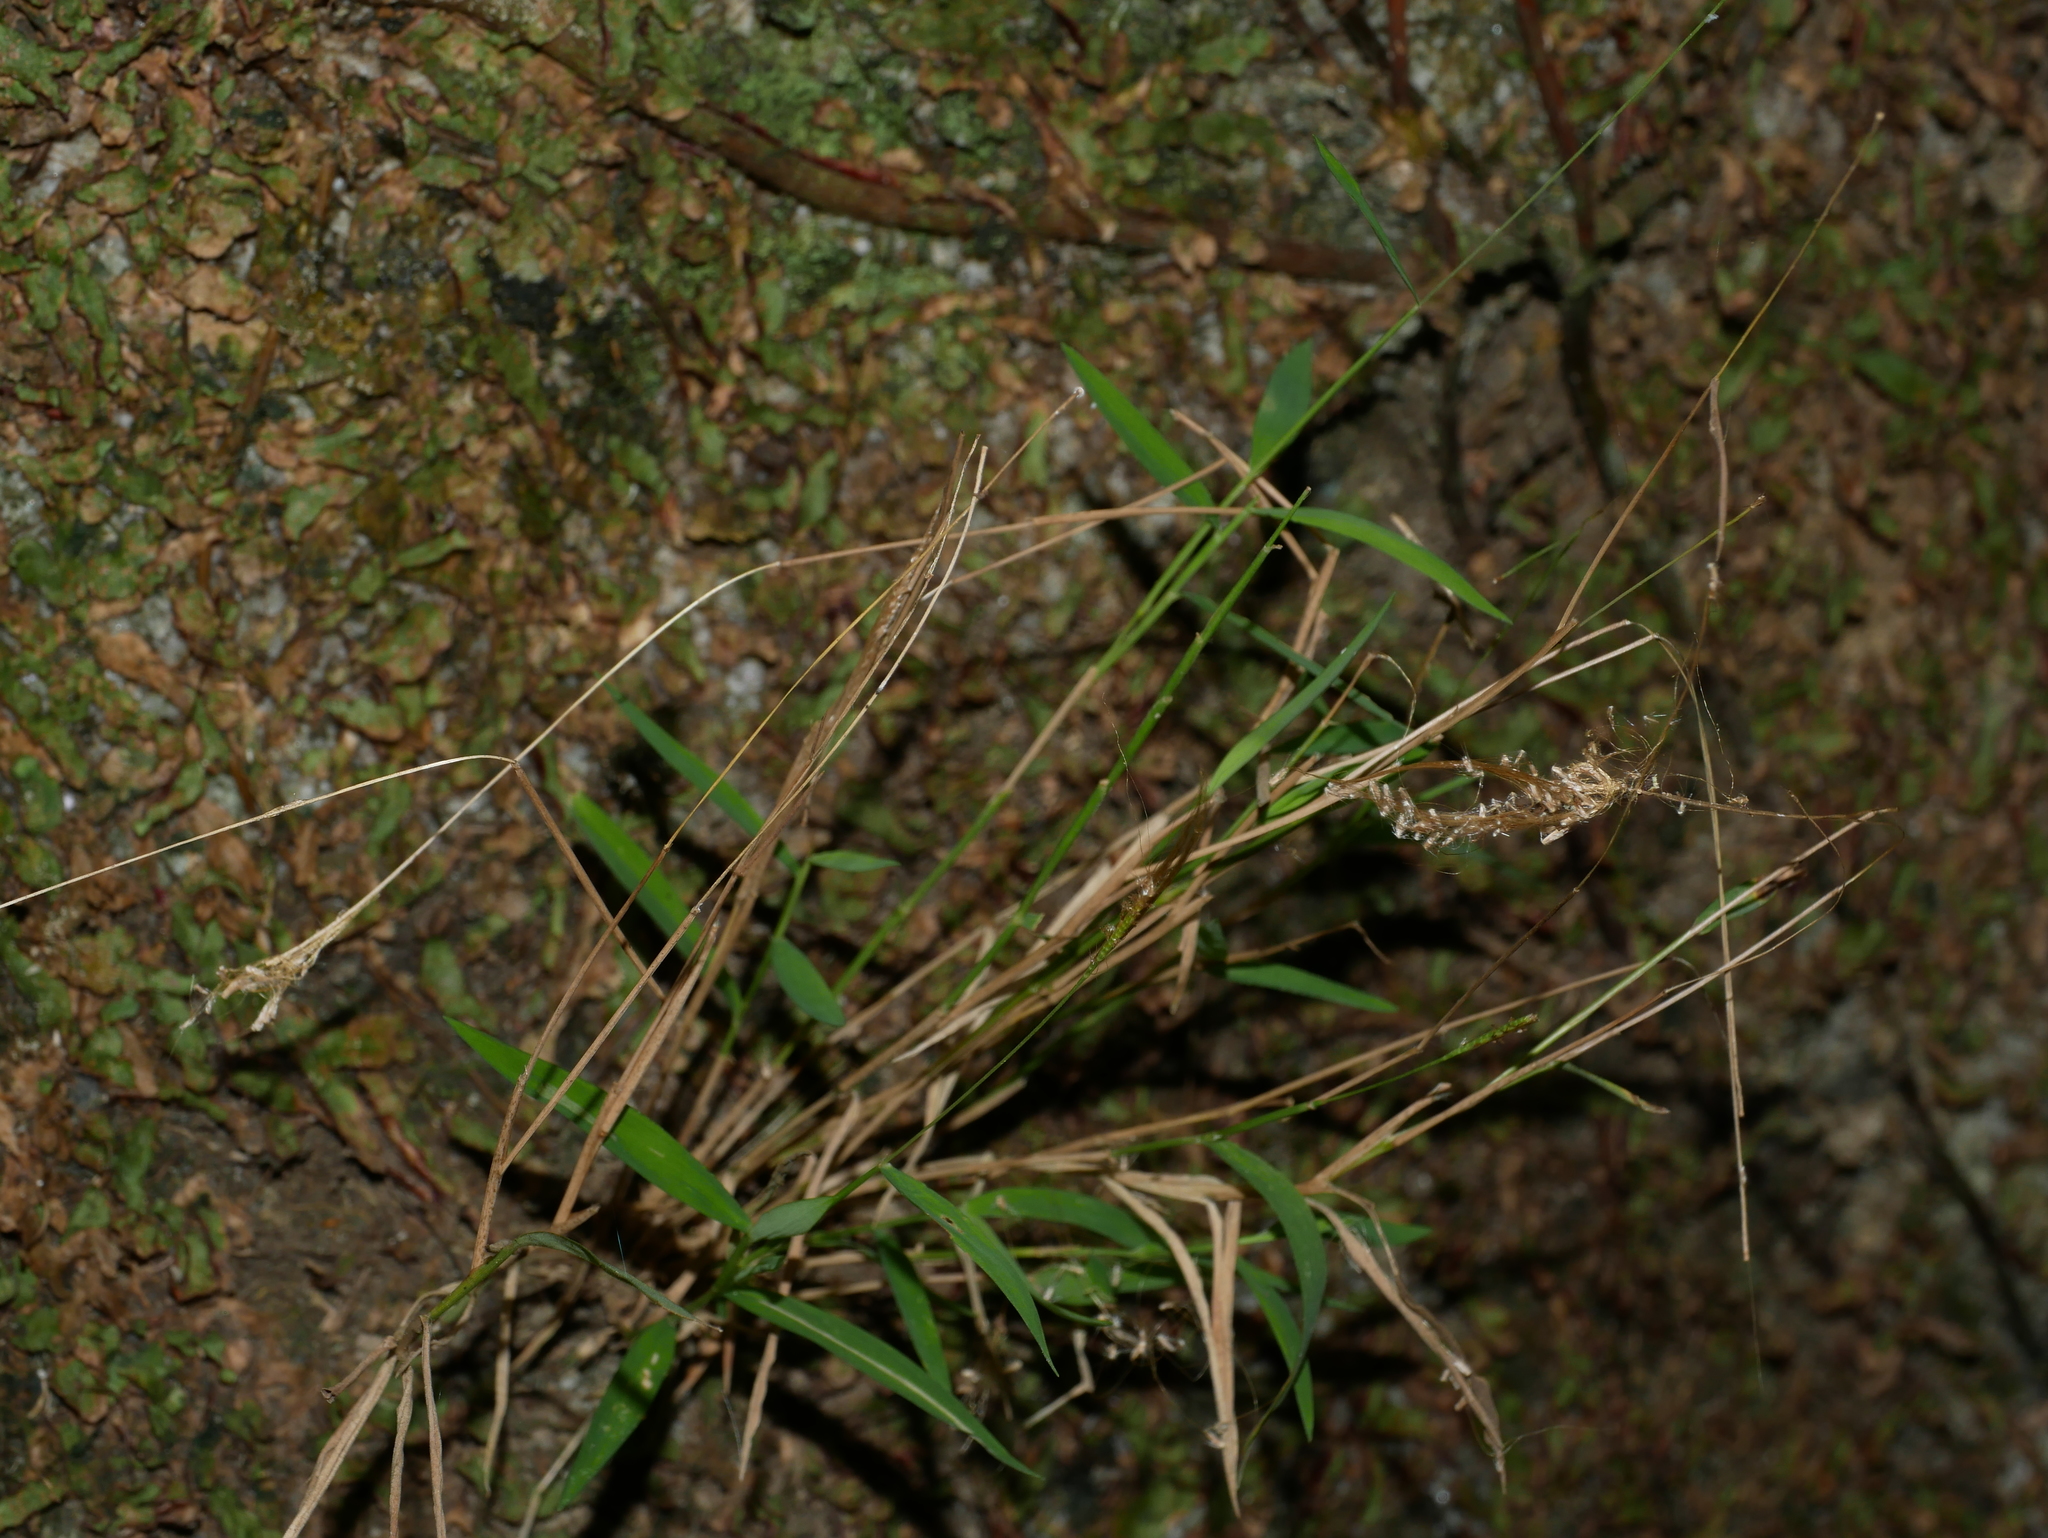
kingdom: Plantae
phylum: Tracheophyta
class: Liliopsida
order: Poales
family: Poaceae
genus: Pogonatherum
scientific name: Pogonatherum crinitum
